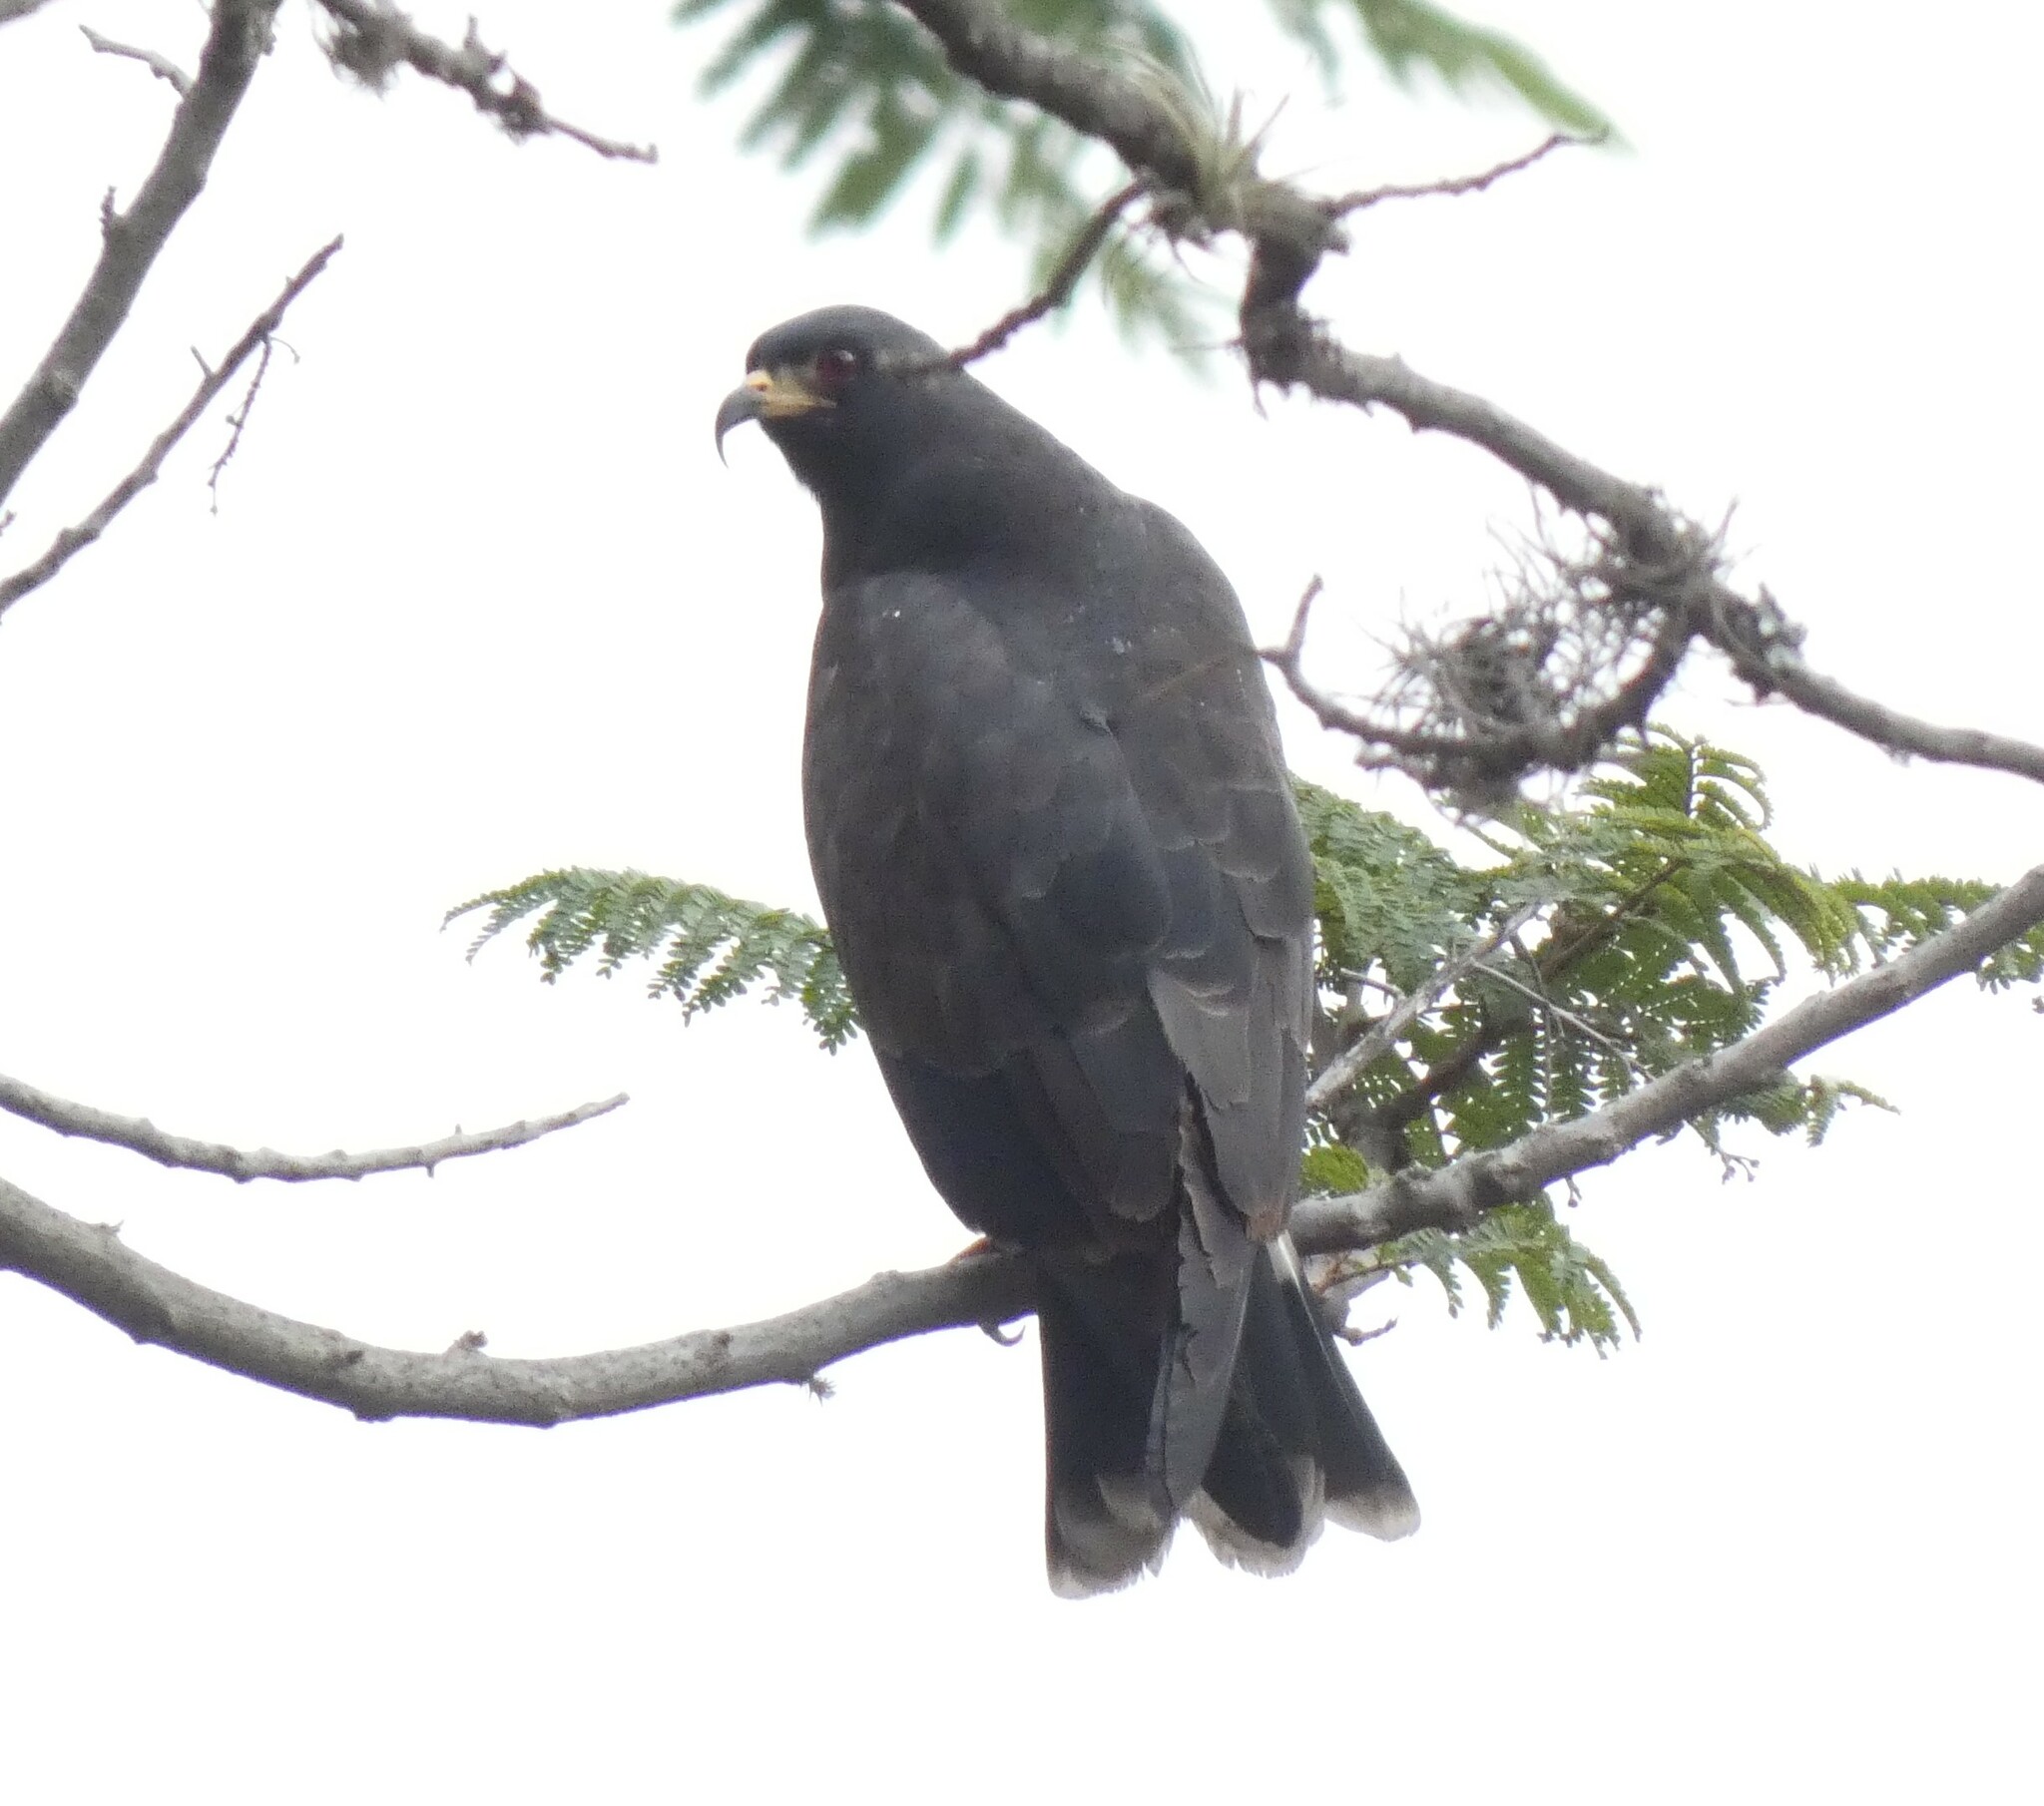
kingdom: Animalia
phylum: Chordata
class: Aves
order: Accipitriformes
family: Accipitridae
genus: Rostrhamus
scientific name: Rostrhamus sociabilis
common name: Snail kite
